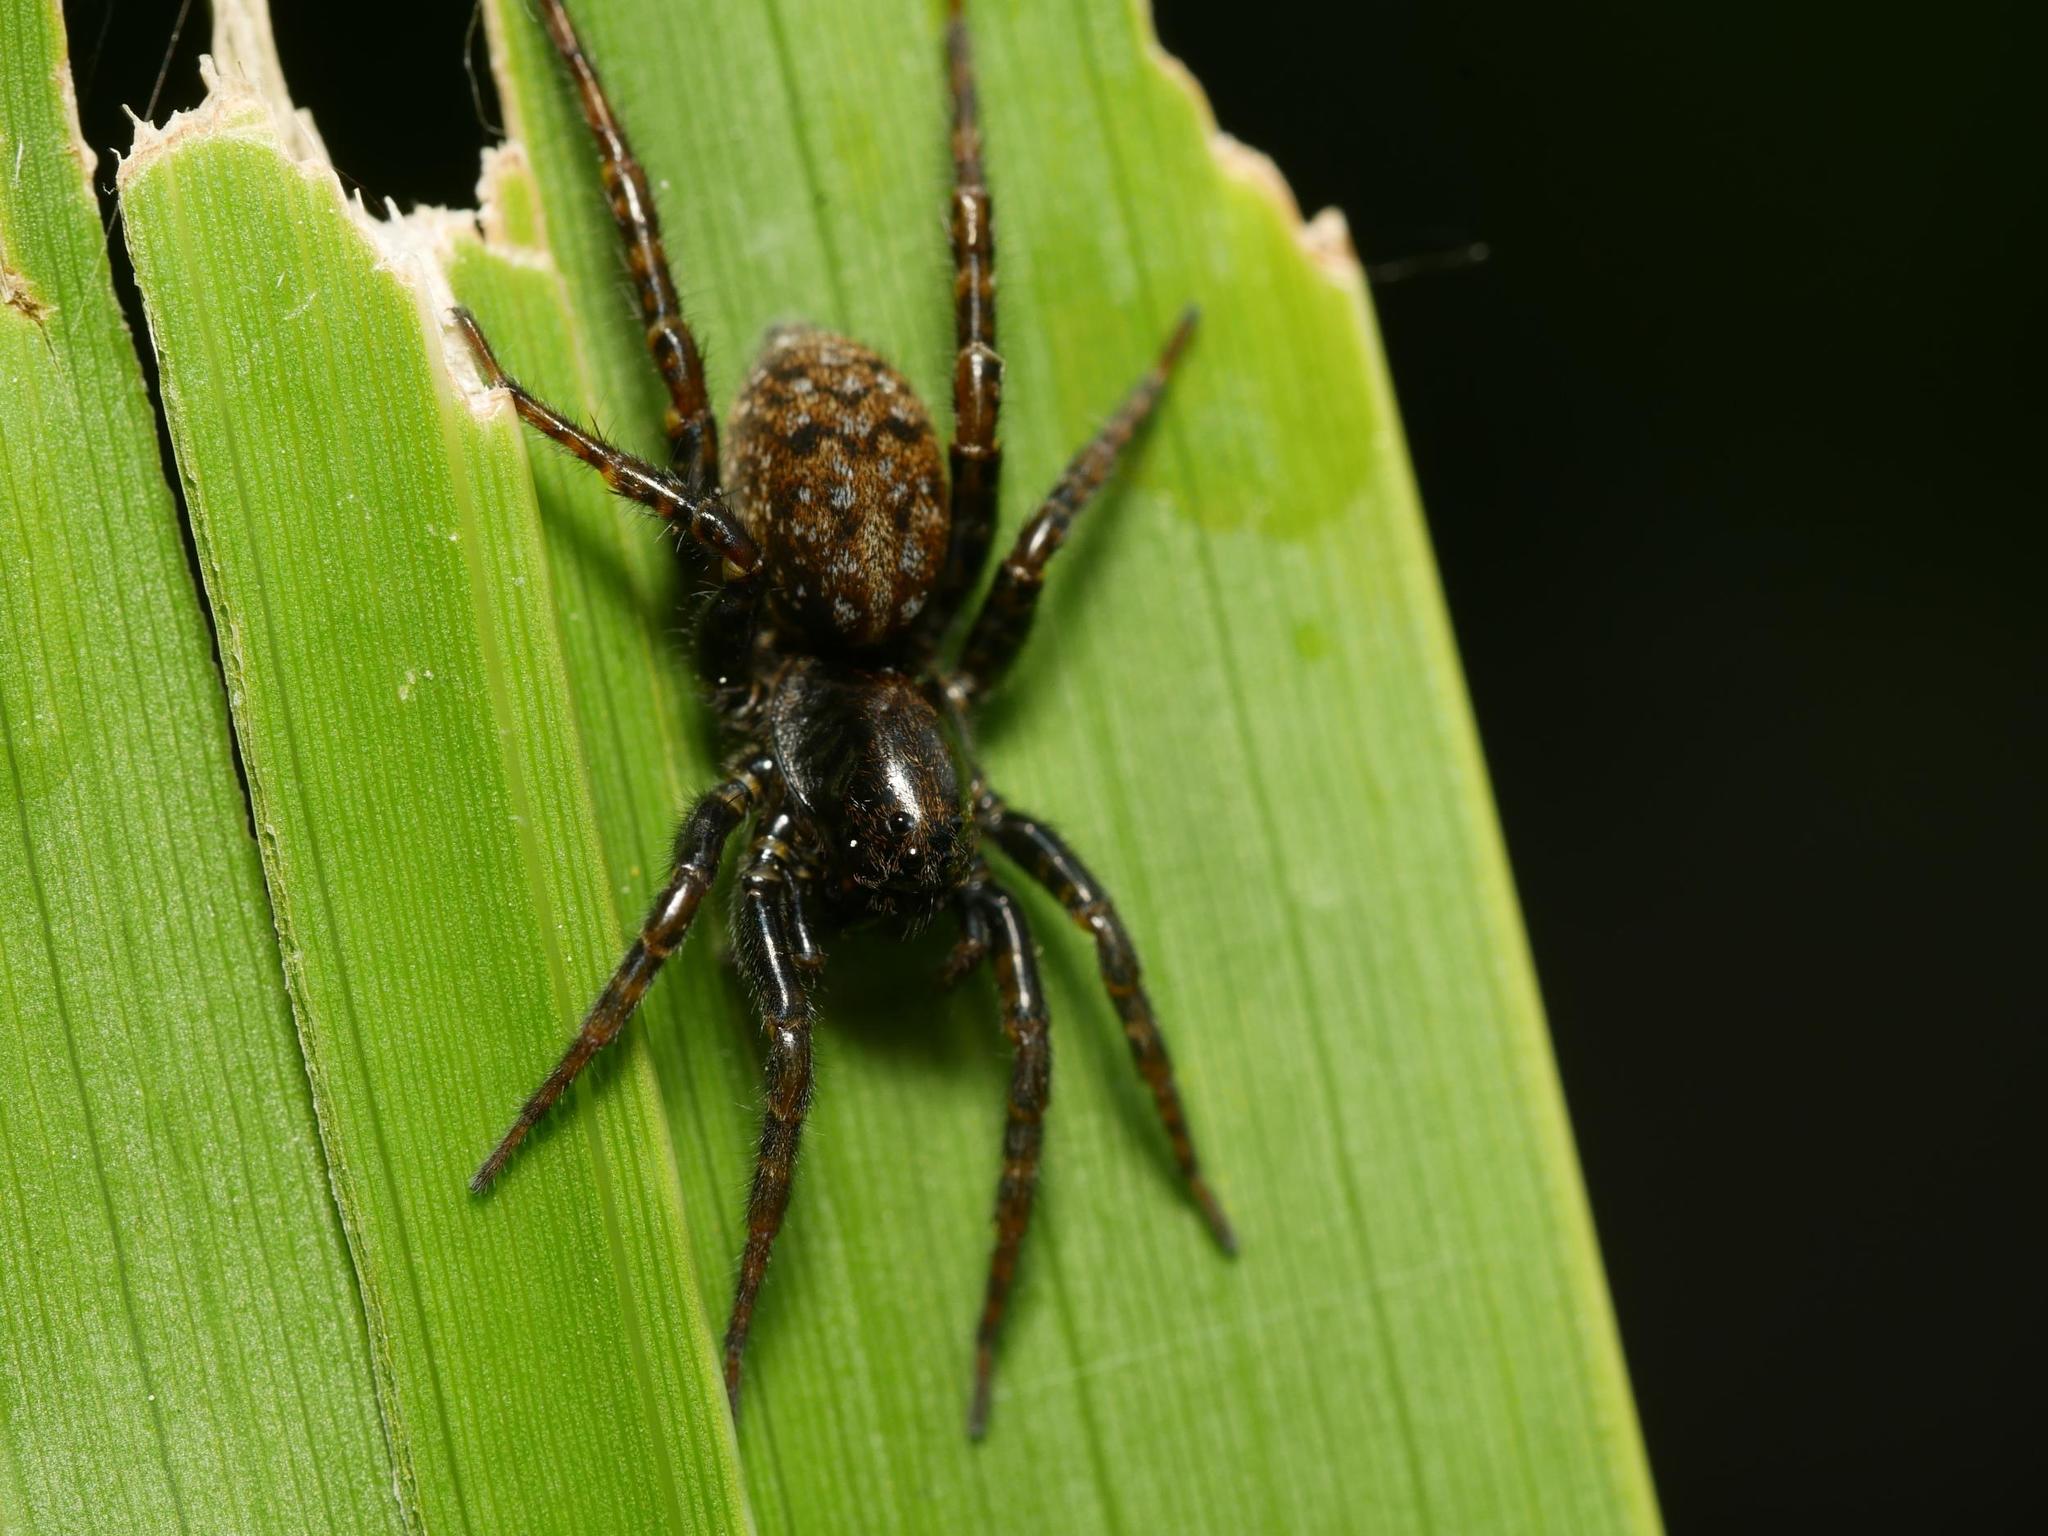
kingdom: Animalia
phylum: Arthropoda
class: Arachnida
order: Araneae
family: Lycosidae
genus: Arctosa
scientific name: Arctosa leopardus
